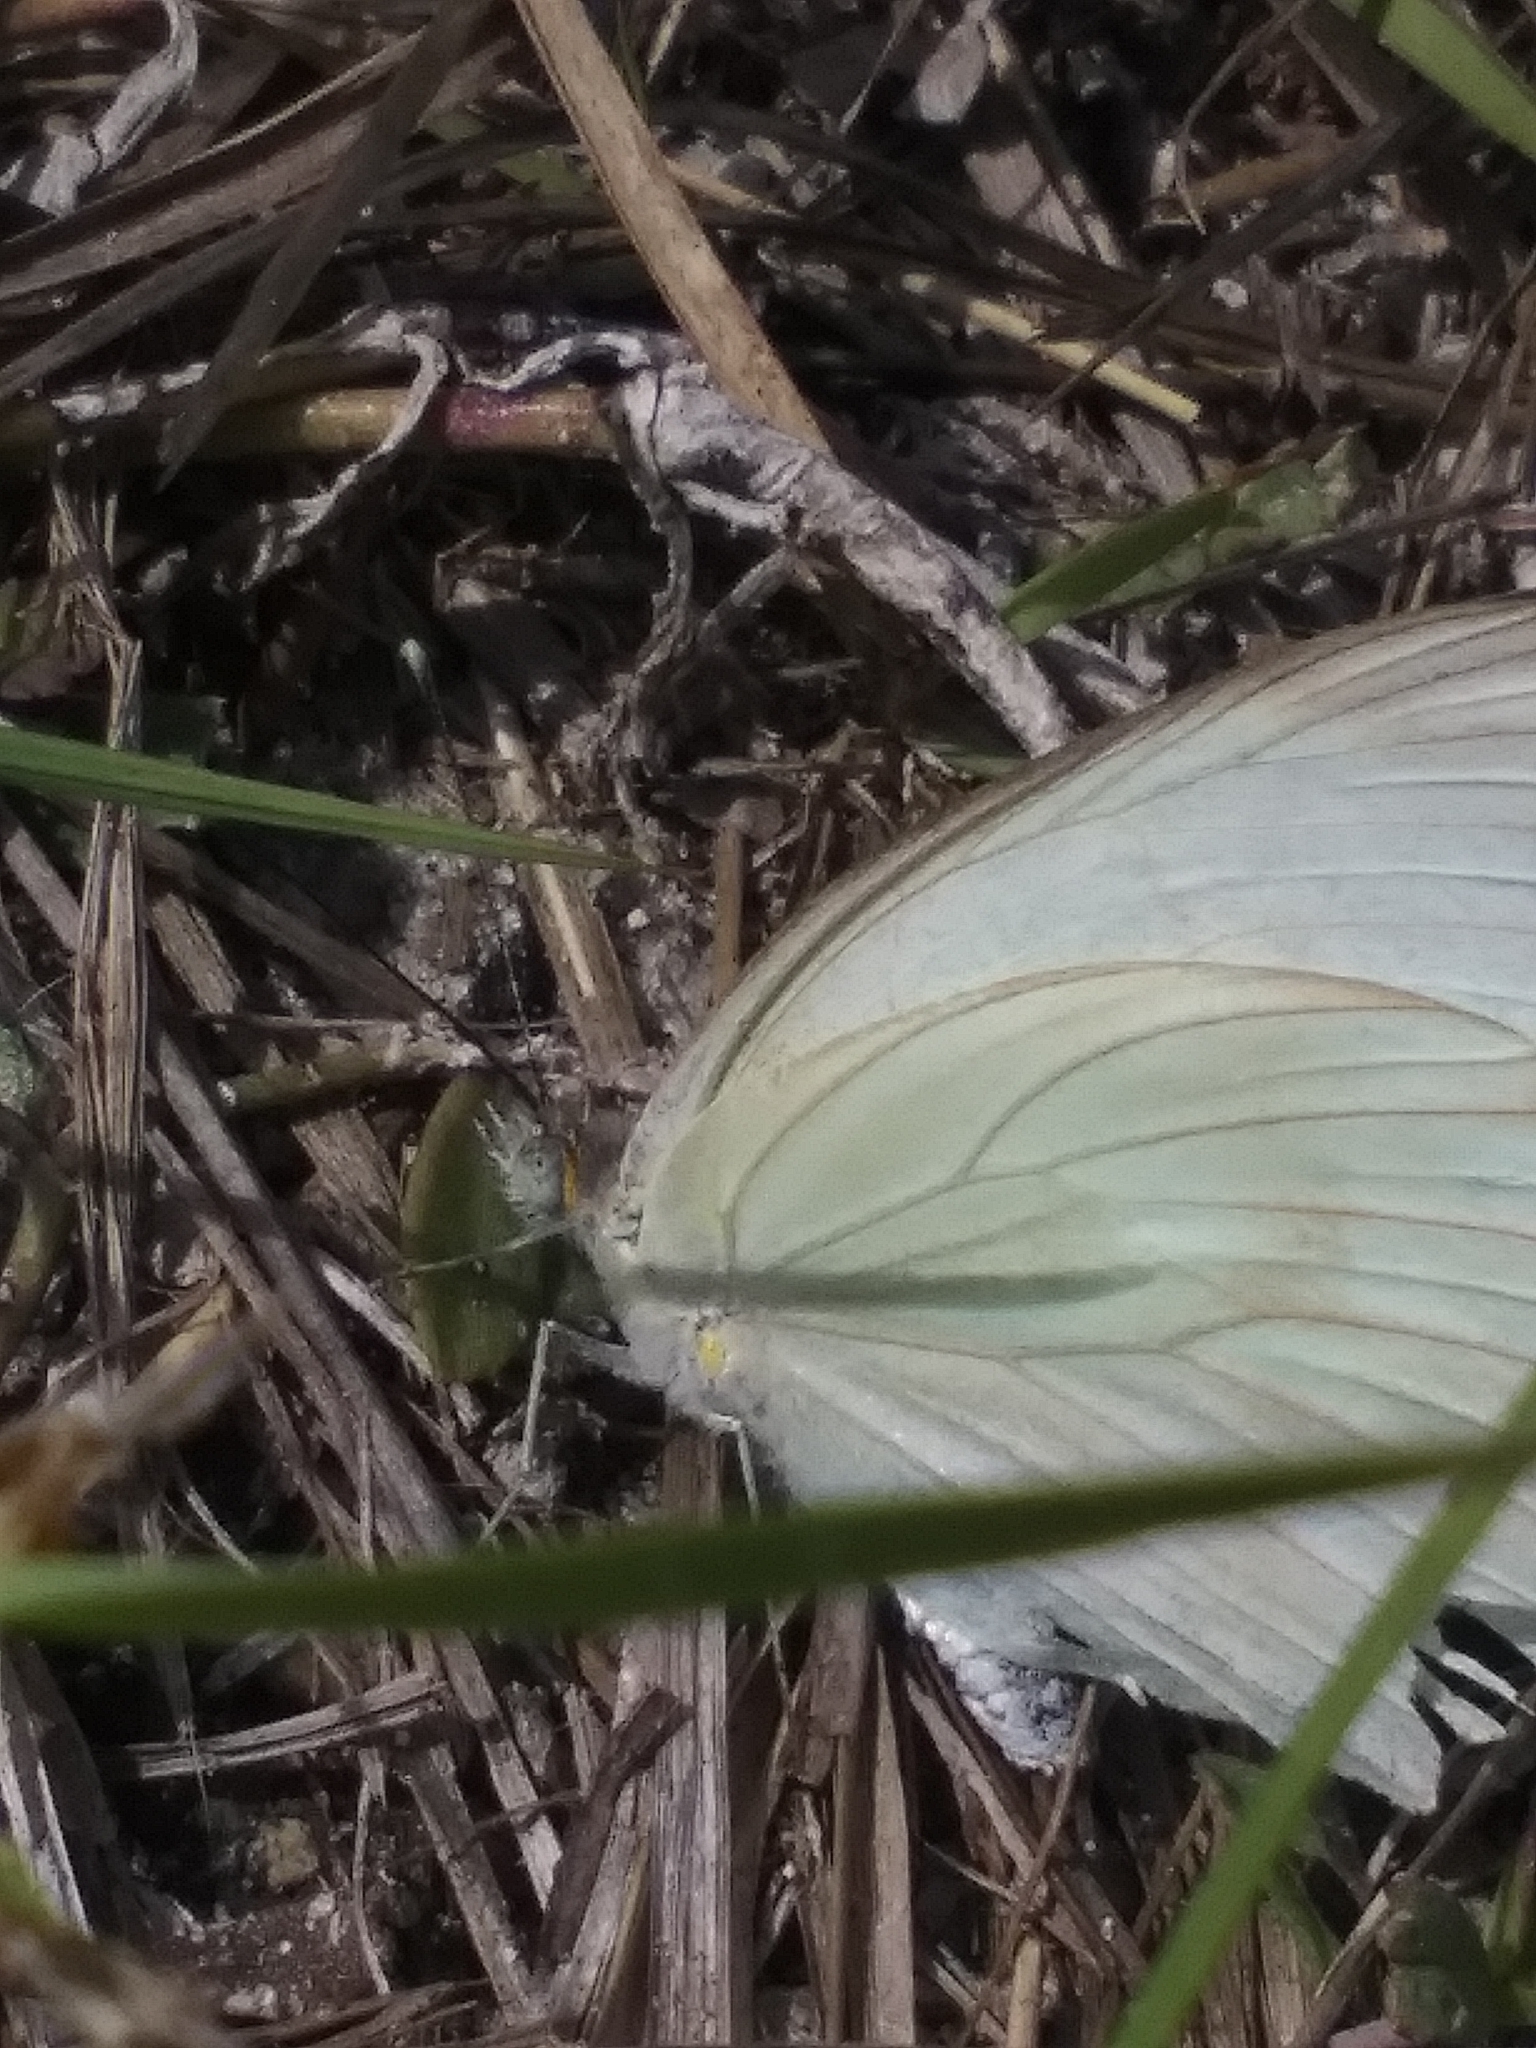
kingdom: Animalia
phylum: Arthropoda
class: Insecta
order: Lepidoptera
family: Pieridae
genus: Ascia
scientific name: Ascia monuste
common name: Great southern white
